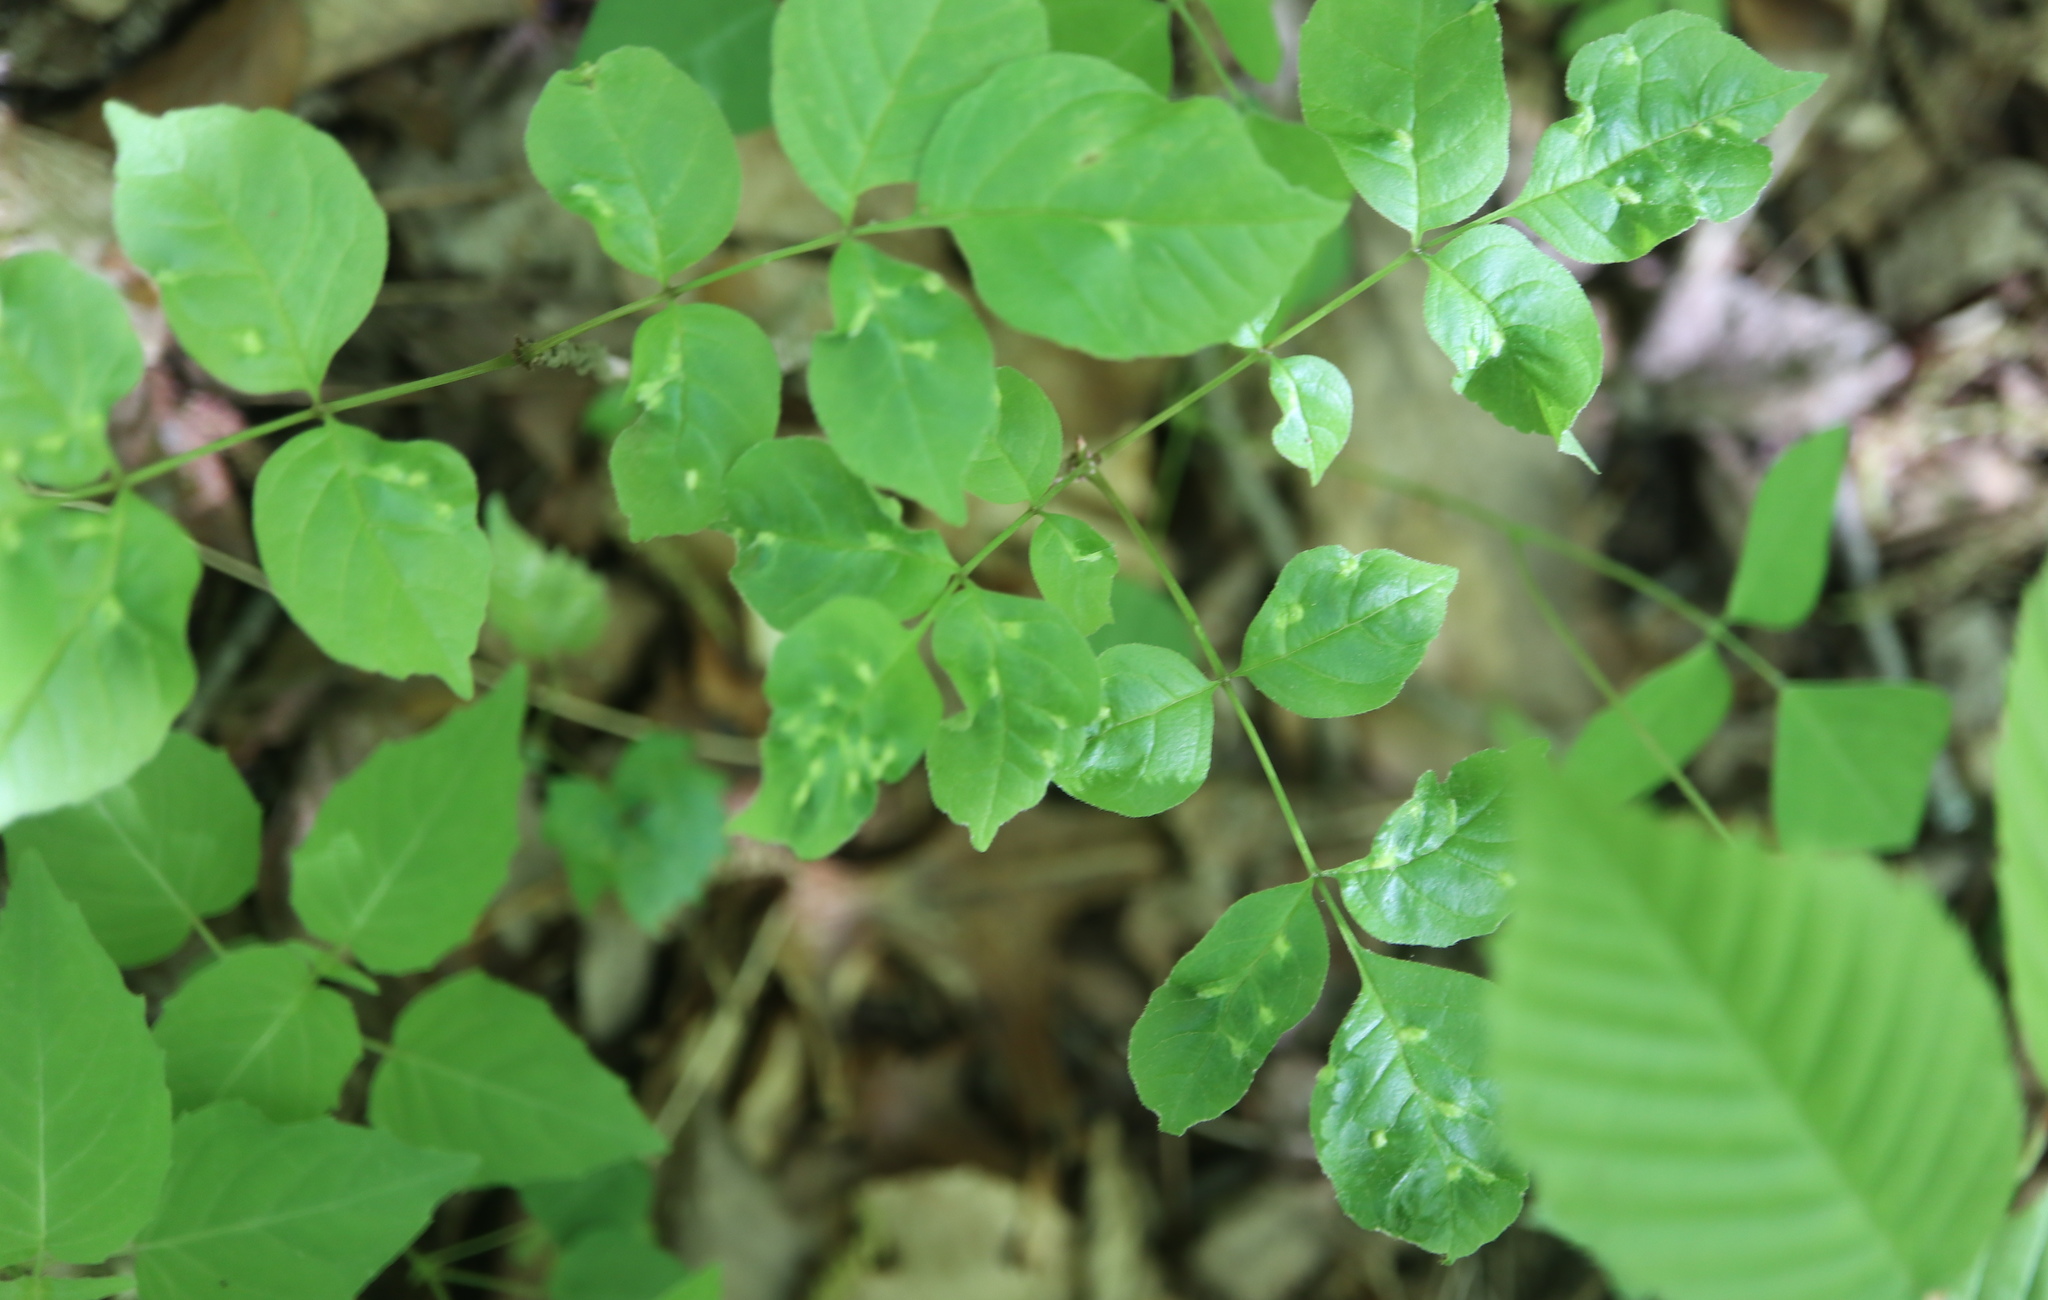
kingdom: Animalia
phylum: Arthropoda
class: Arachnida
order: Trombidiformes
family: Eriophyidae
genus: Aceria
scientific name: Aceria fraxinicola
